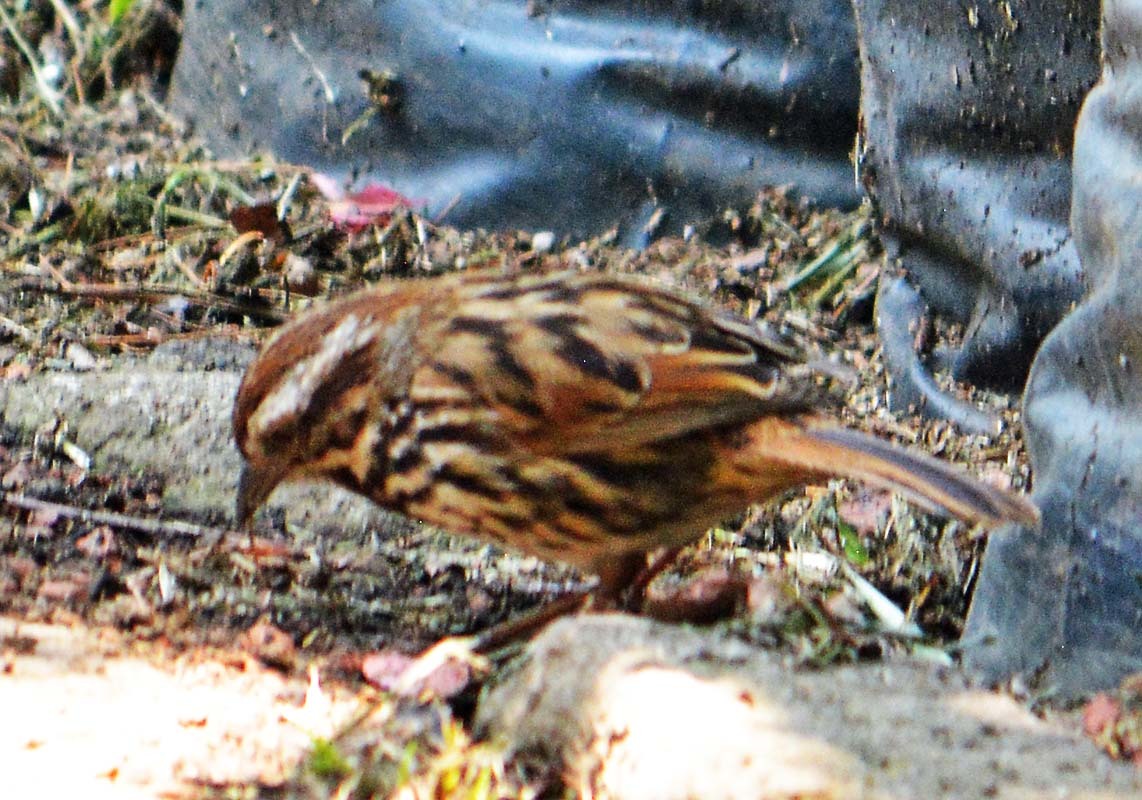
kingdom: Animalia
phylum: Chordata
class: Aves
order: Passeriformes
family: Passerellidae
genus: Melospiza
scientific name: Melospiza melodia
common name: Song sparrow
